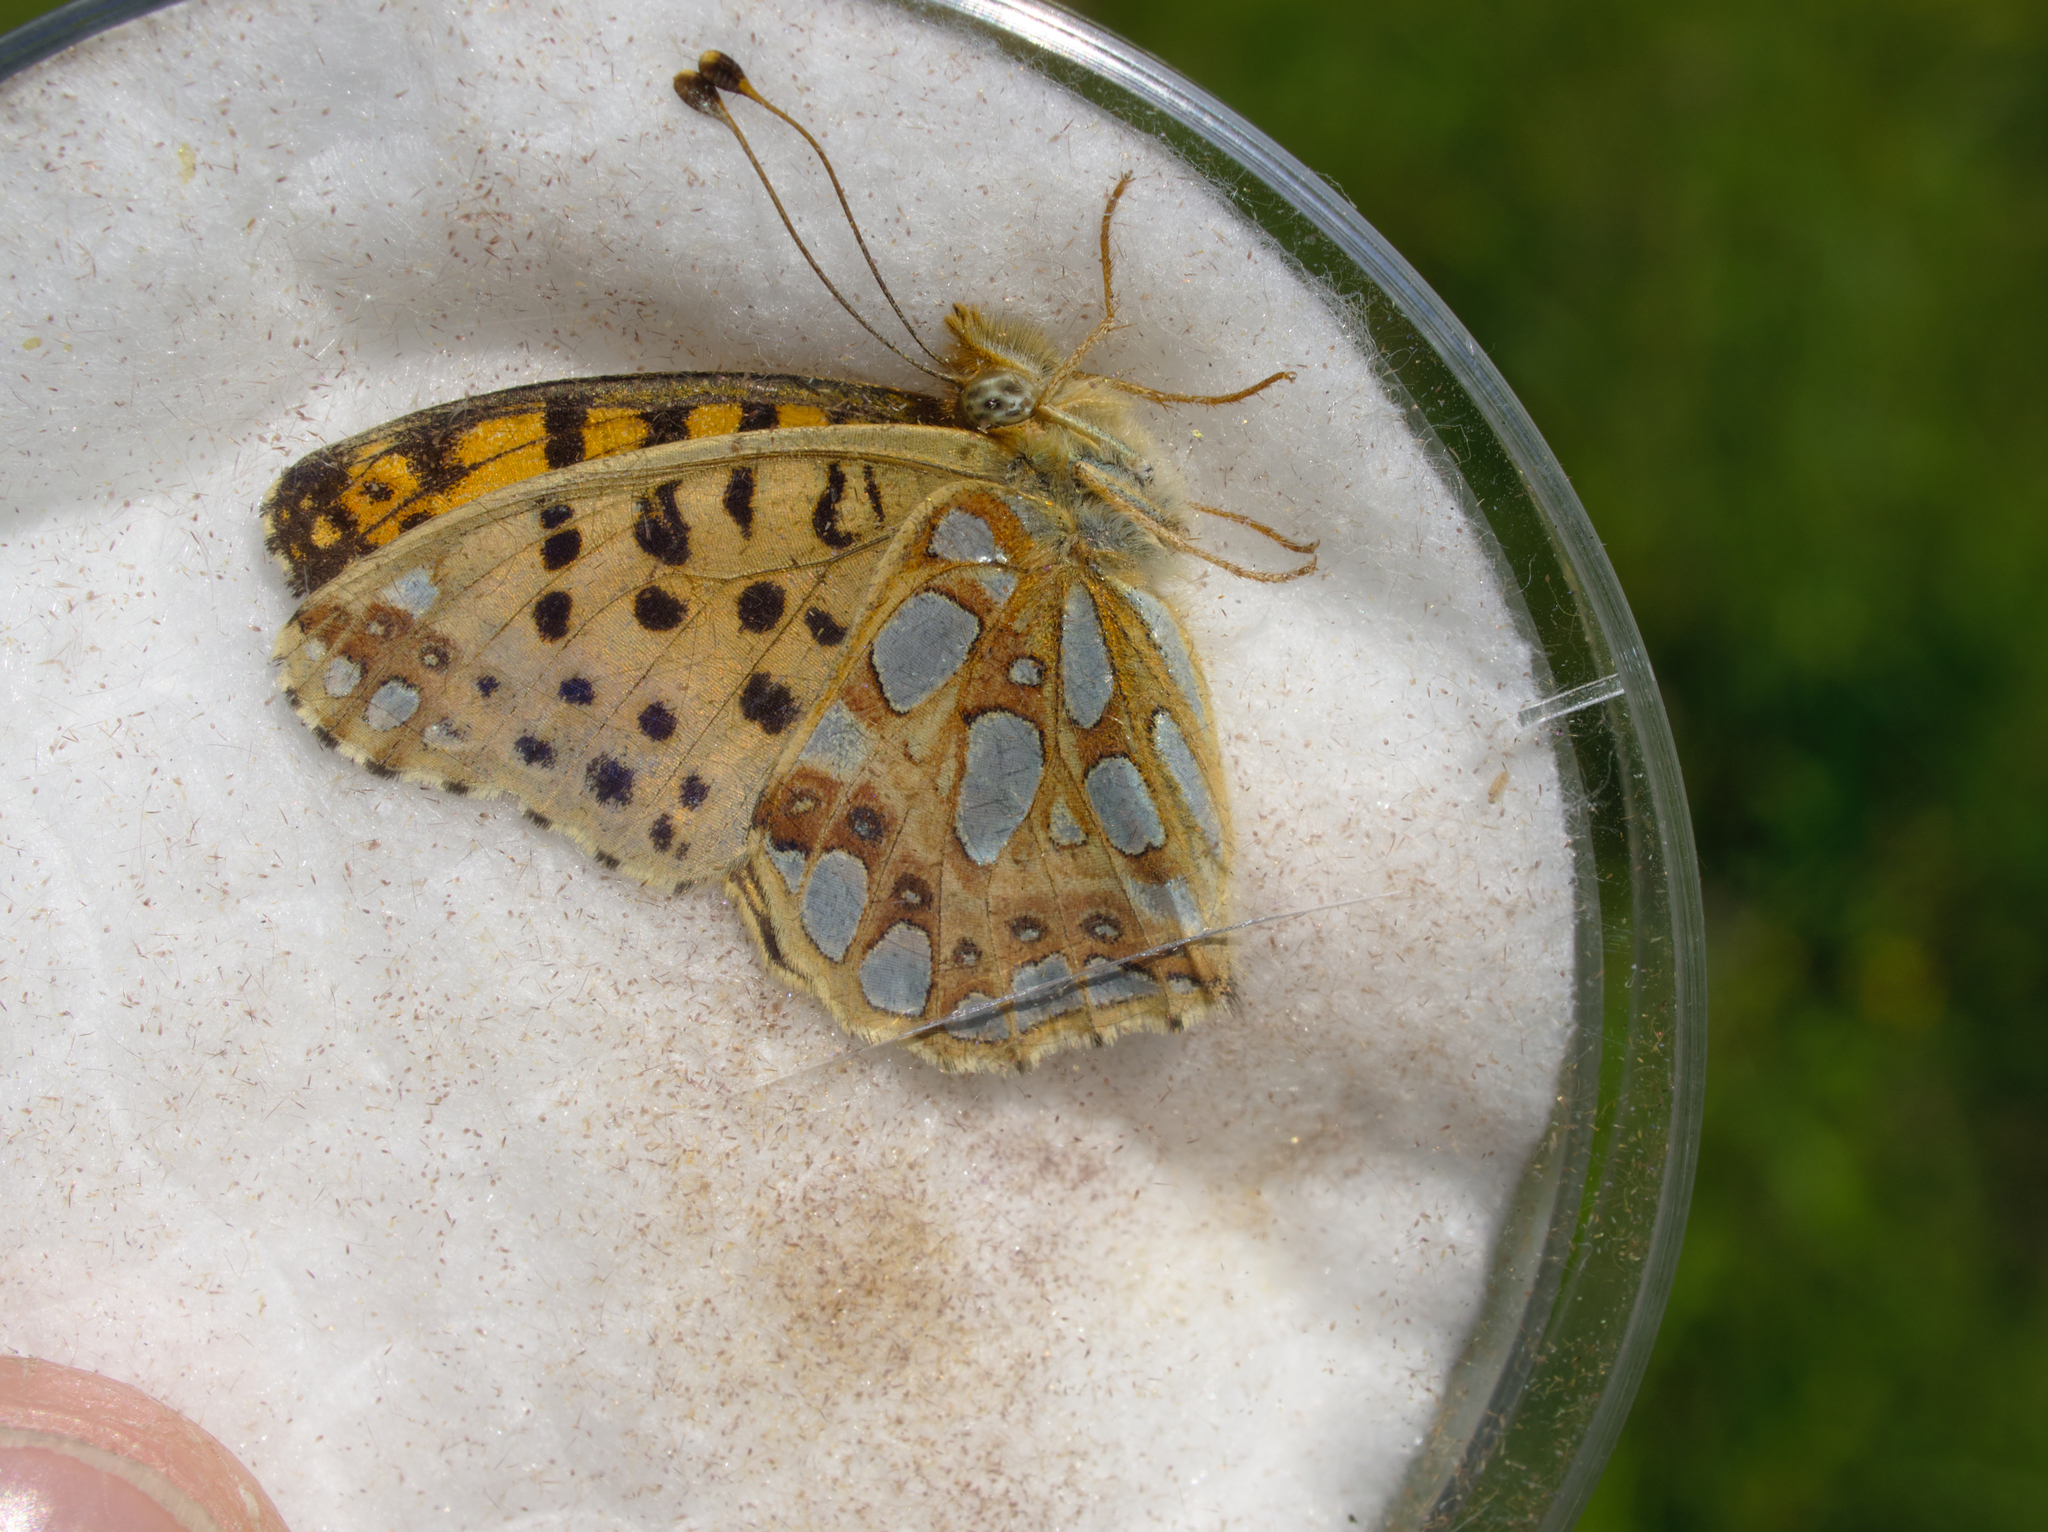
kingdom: Animalia
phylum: Arthropoda
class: Insecta
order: Lepidoptera
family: Nymphalidae
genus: Issoria
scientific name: Issoria lathonia
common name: Queen of spain fritillary
